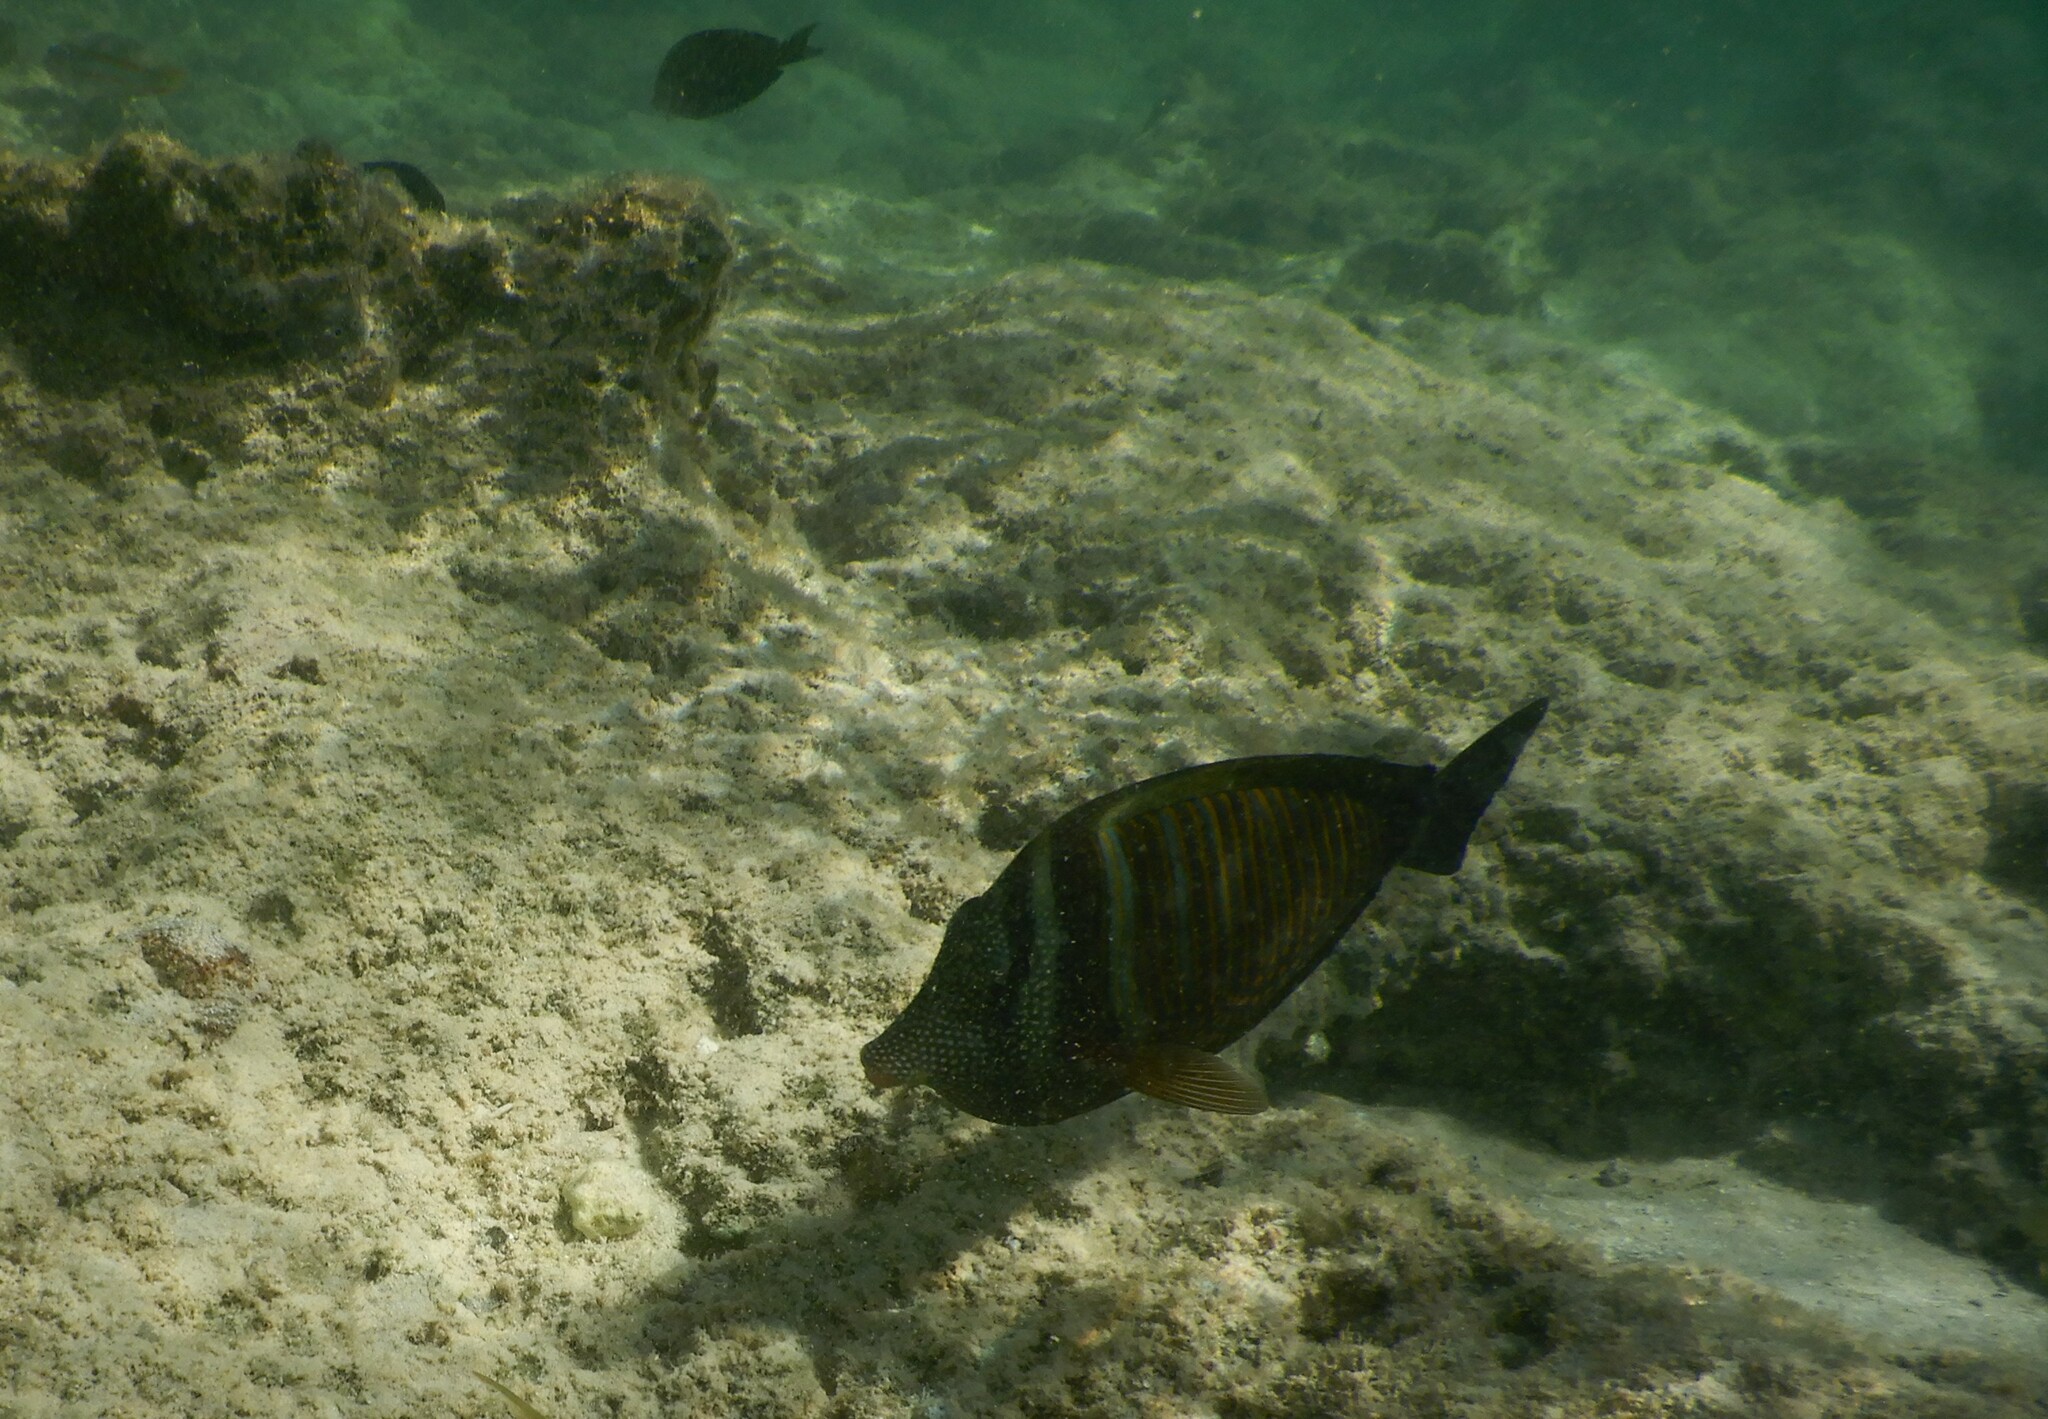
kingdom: Animalia
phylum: Chordata
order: Perciformes
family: Acanthuridae
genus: Zebrasoma
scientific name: Zebrasoma desjardinii
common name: Desjardin's sailfin tang
